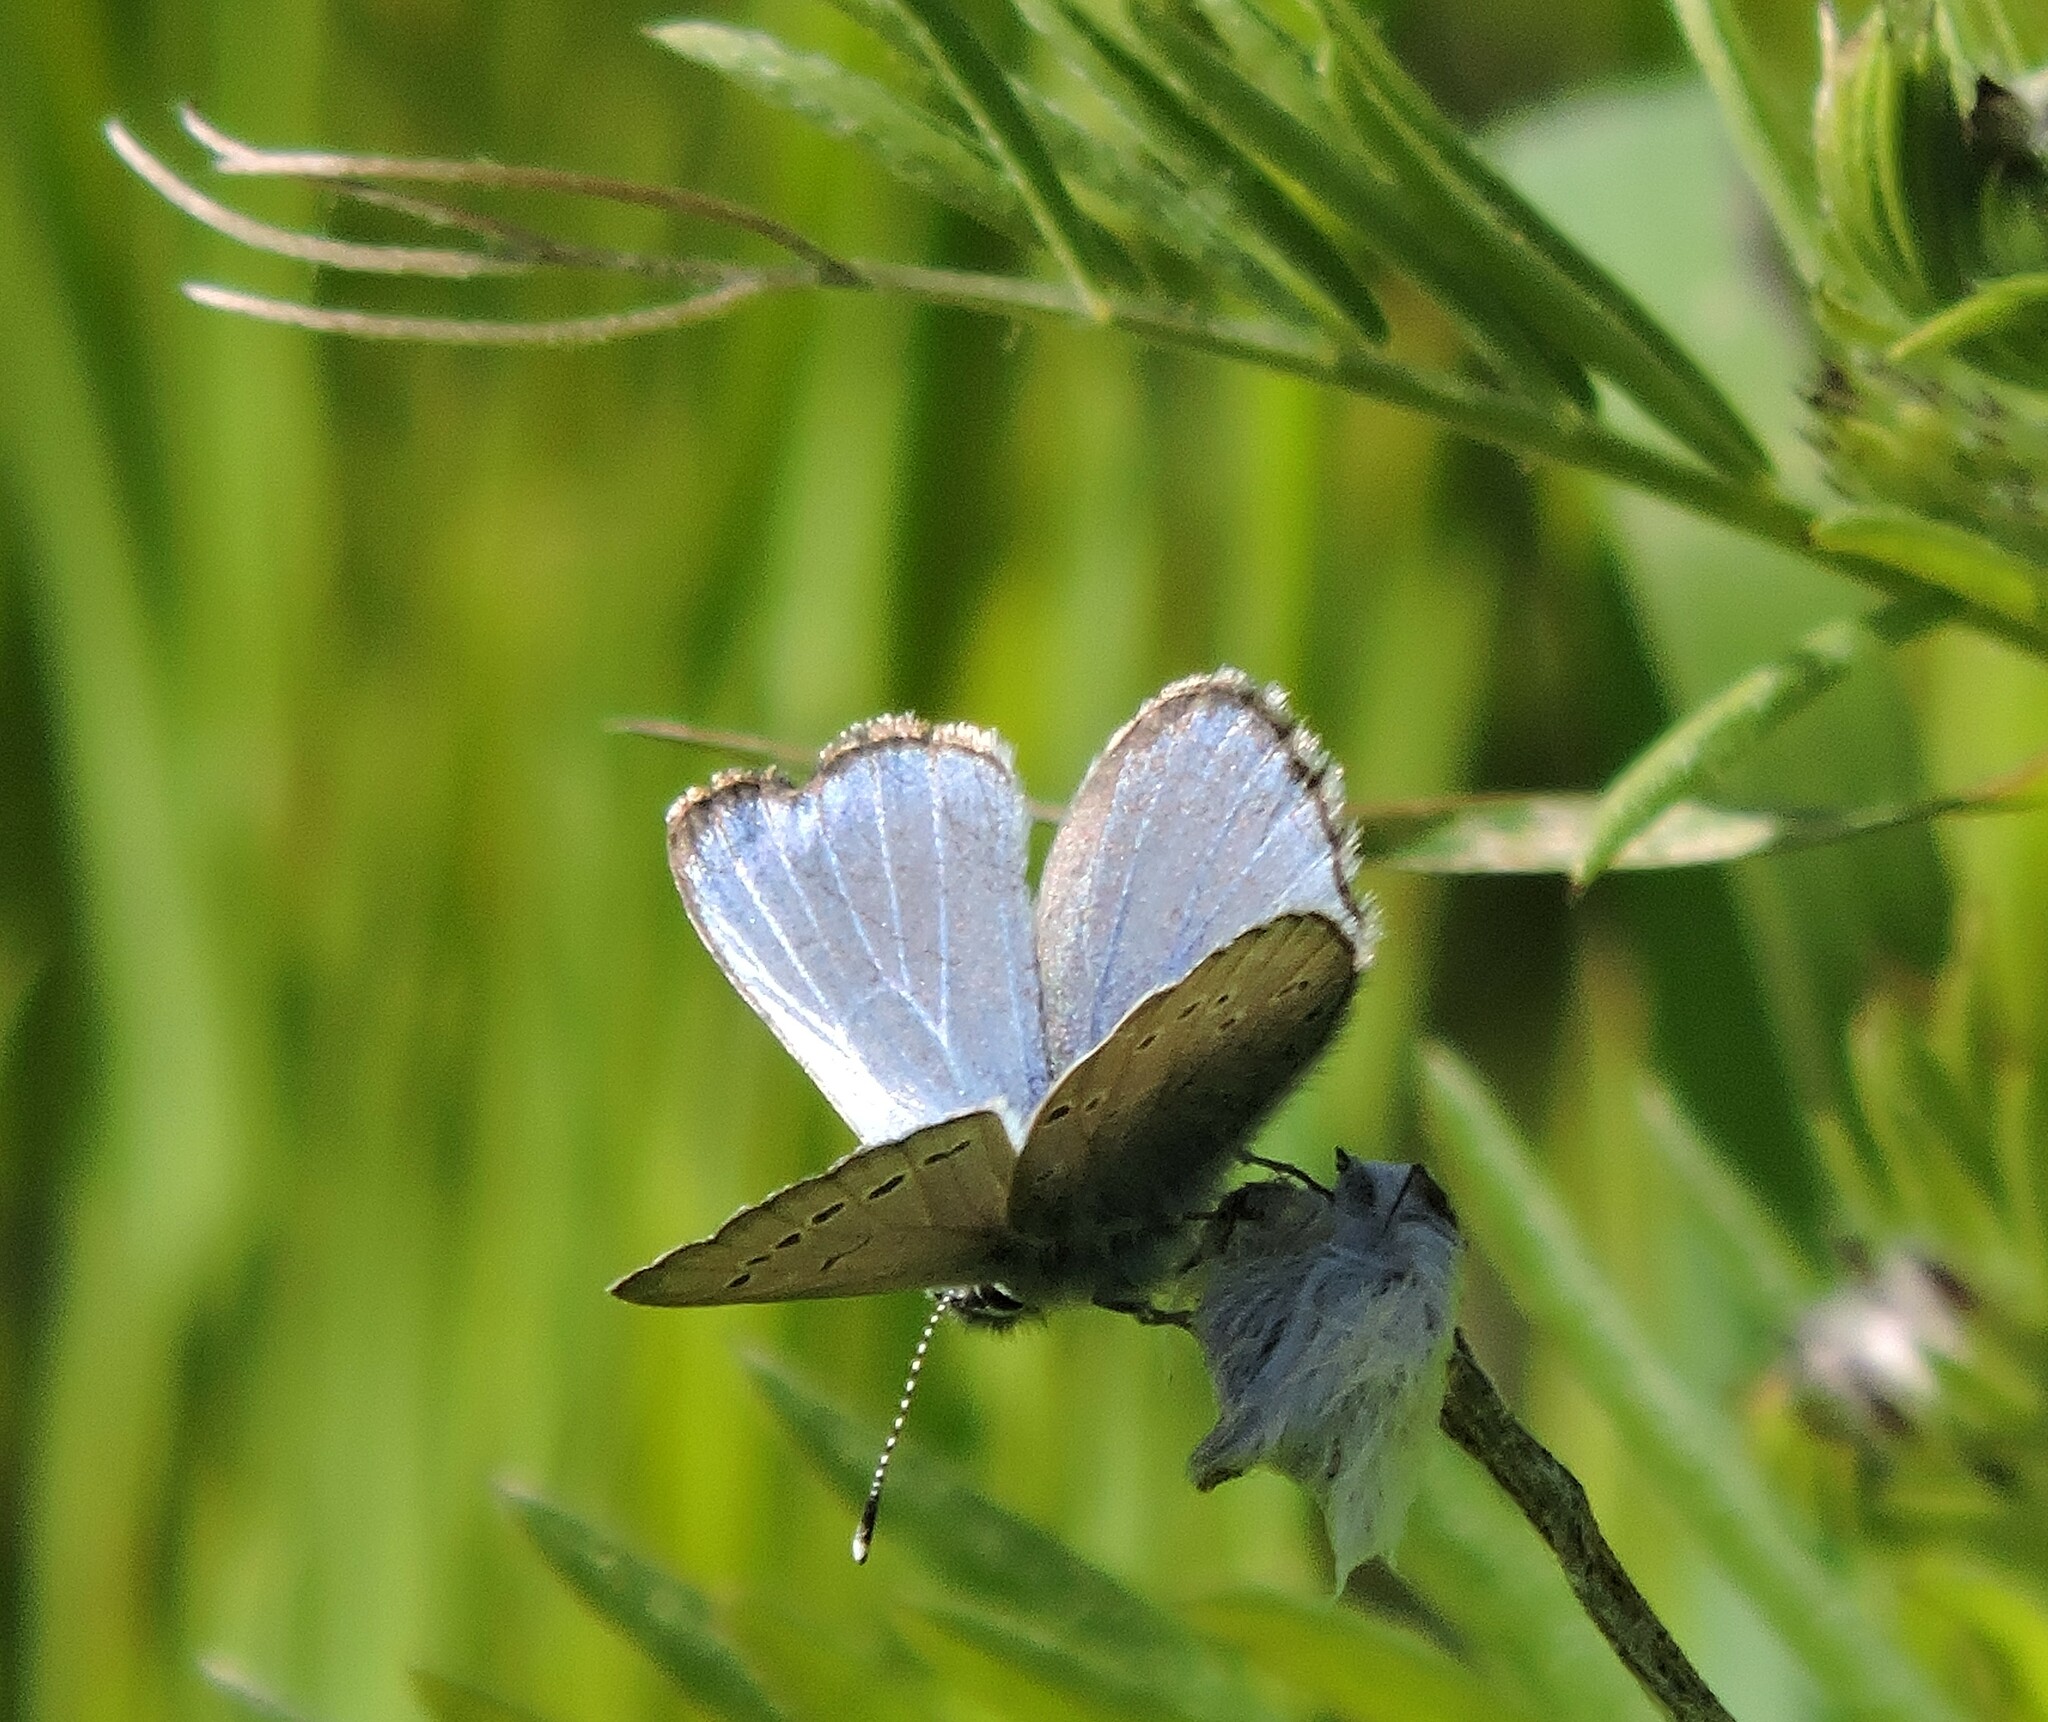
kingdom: Animalia
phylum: Arthropoda
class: Insecta
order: Lepidoptera
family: Lycaenidae
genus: Glaucopsyche
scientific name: Glaucopsyche lygdamus
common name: Silvery blue
